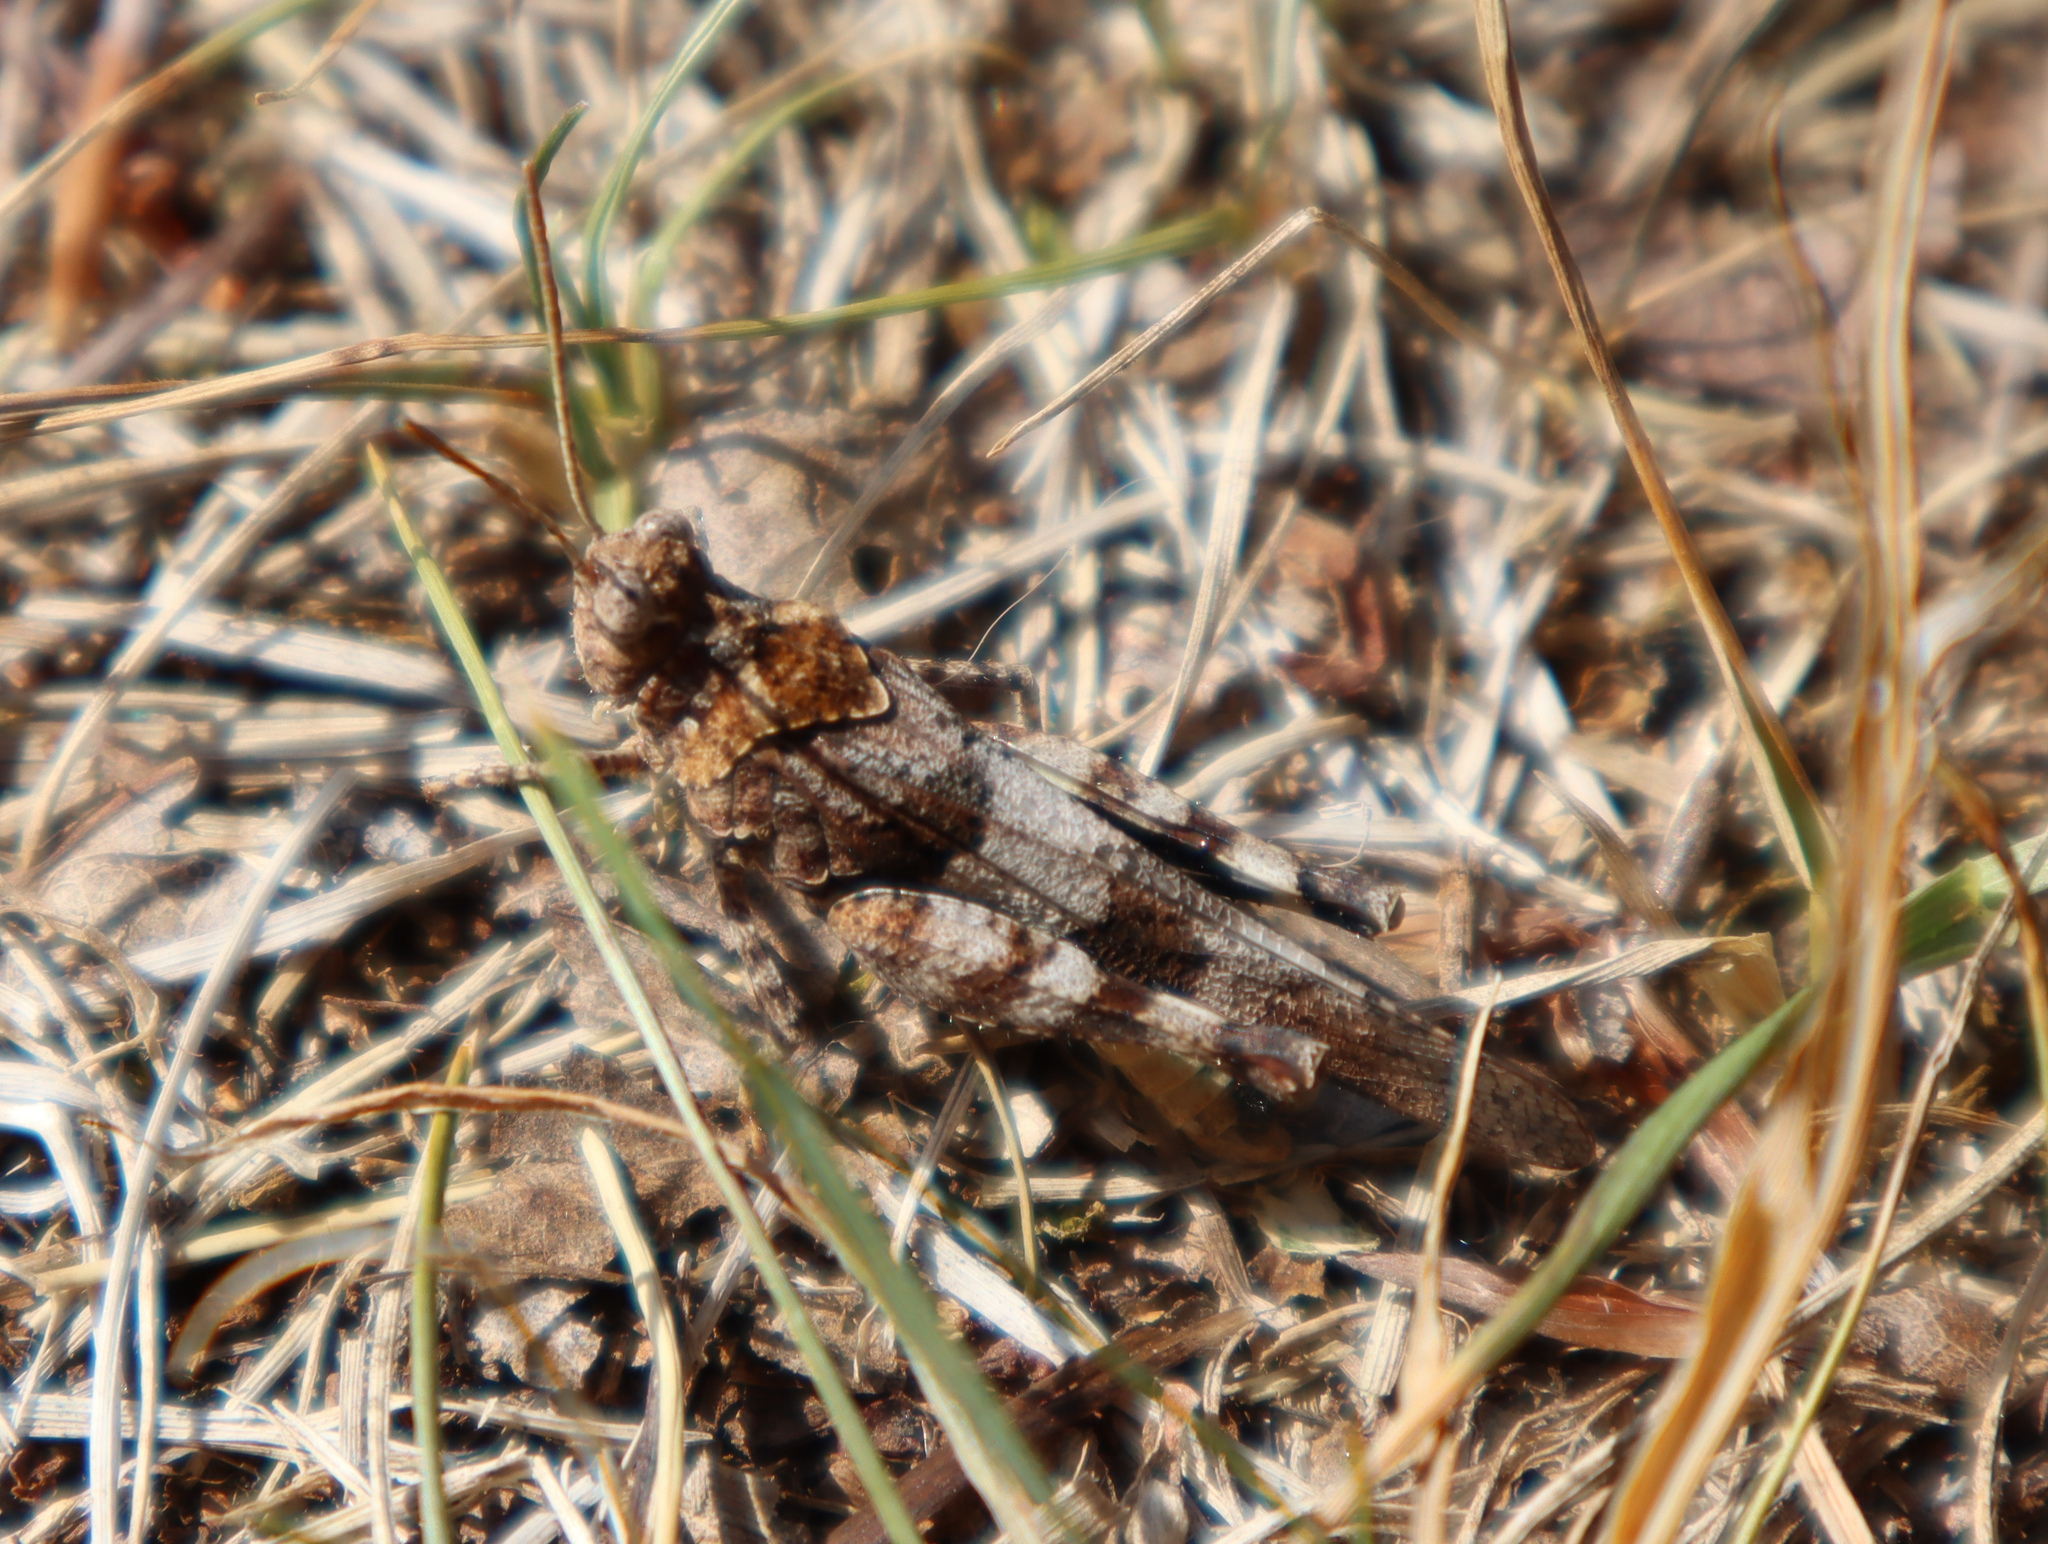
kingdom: Animalia
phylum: Arthropoda
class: Insecta
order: Orthoptera
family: Acrididae
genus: Oedipoda
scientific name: Oedipoda caerulescens
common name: Blue-winged grasshopper
